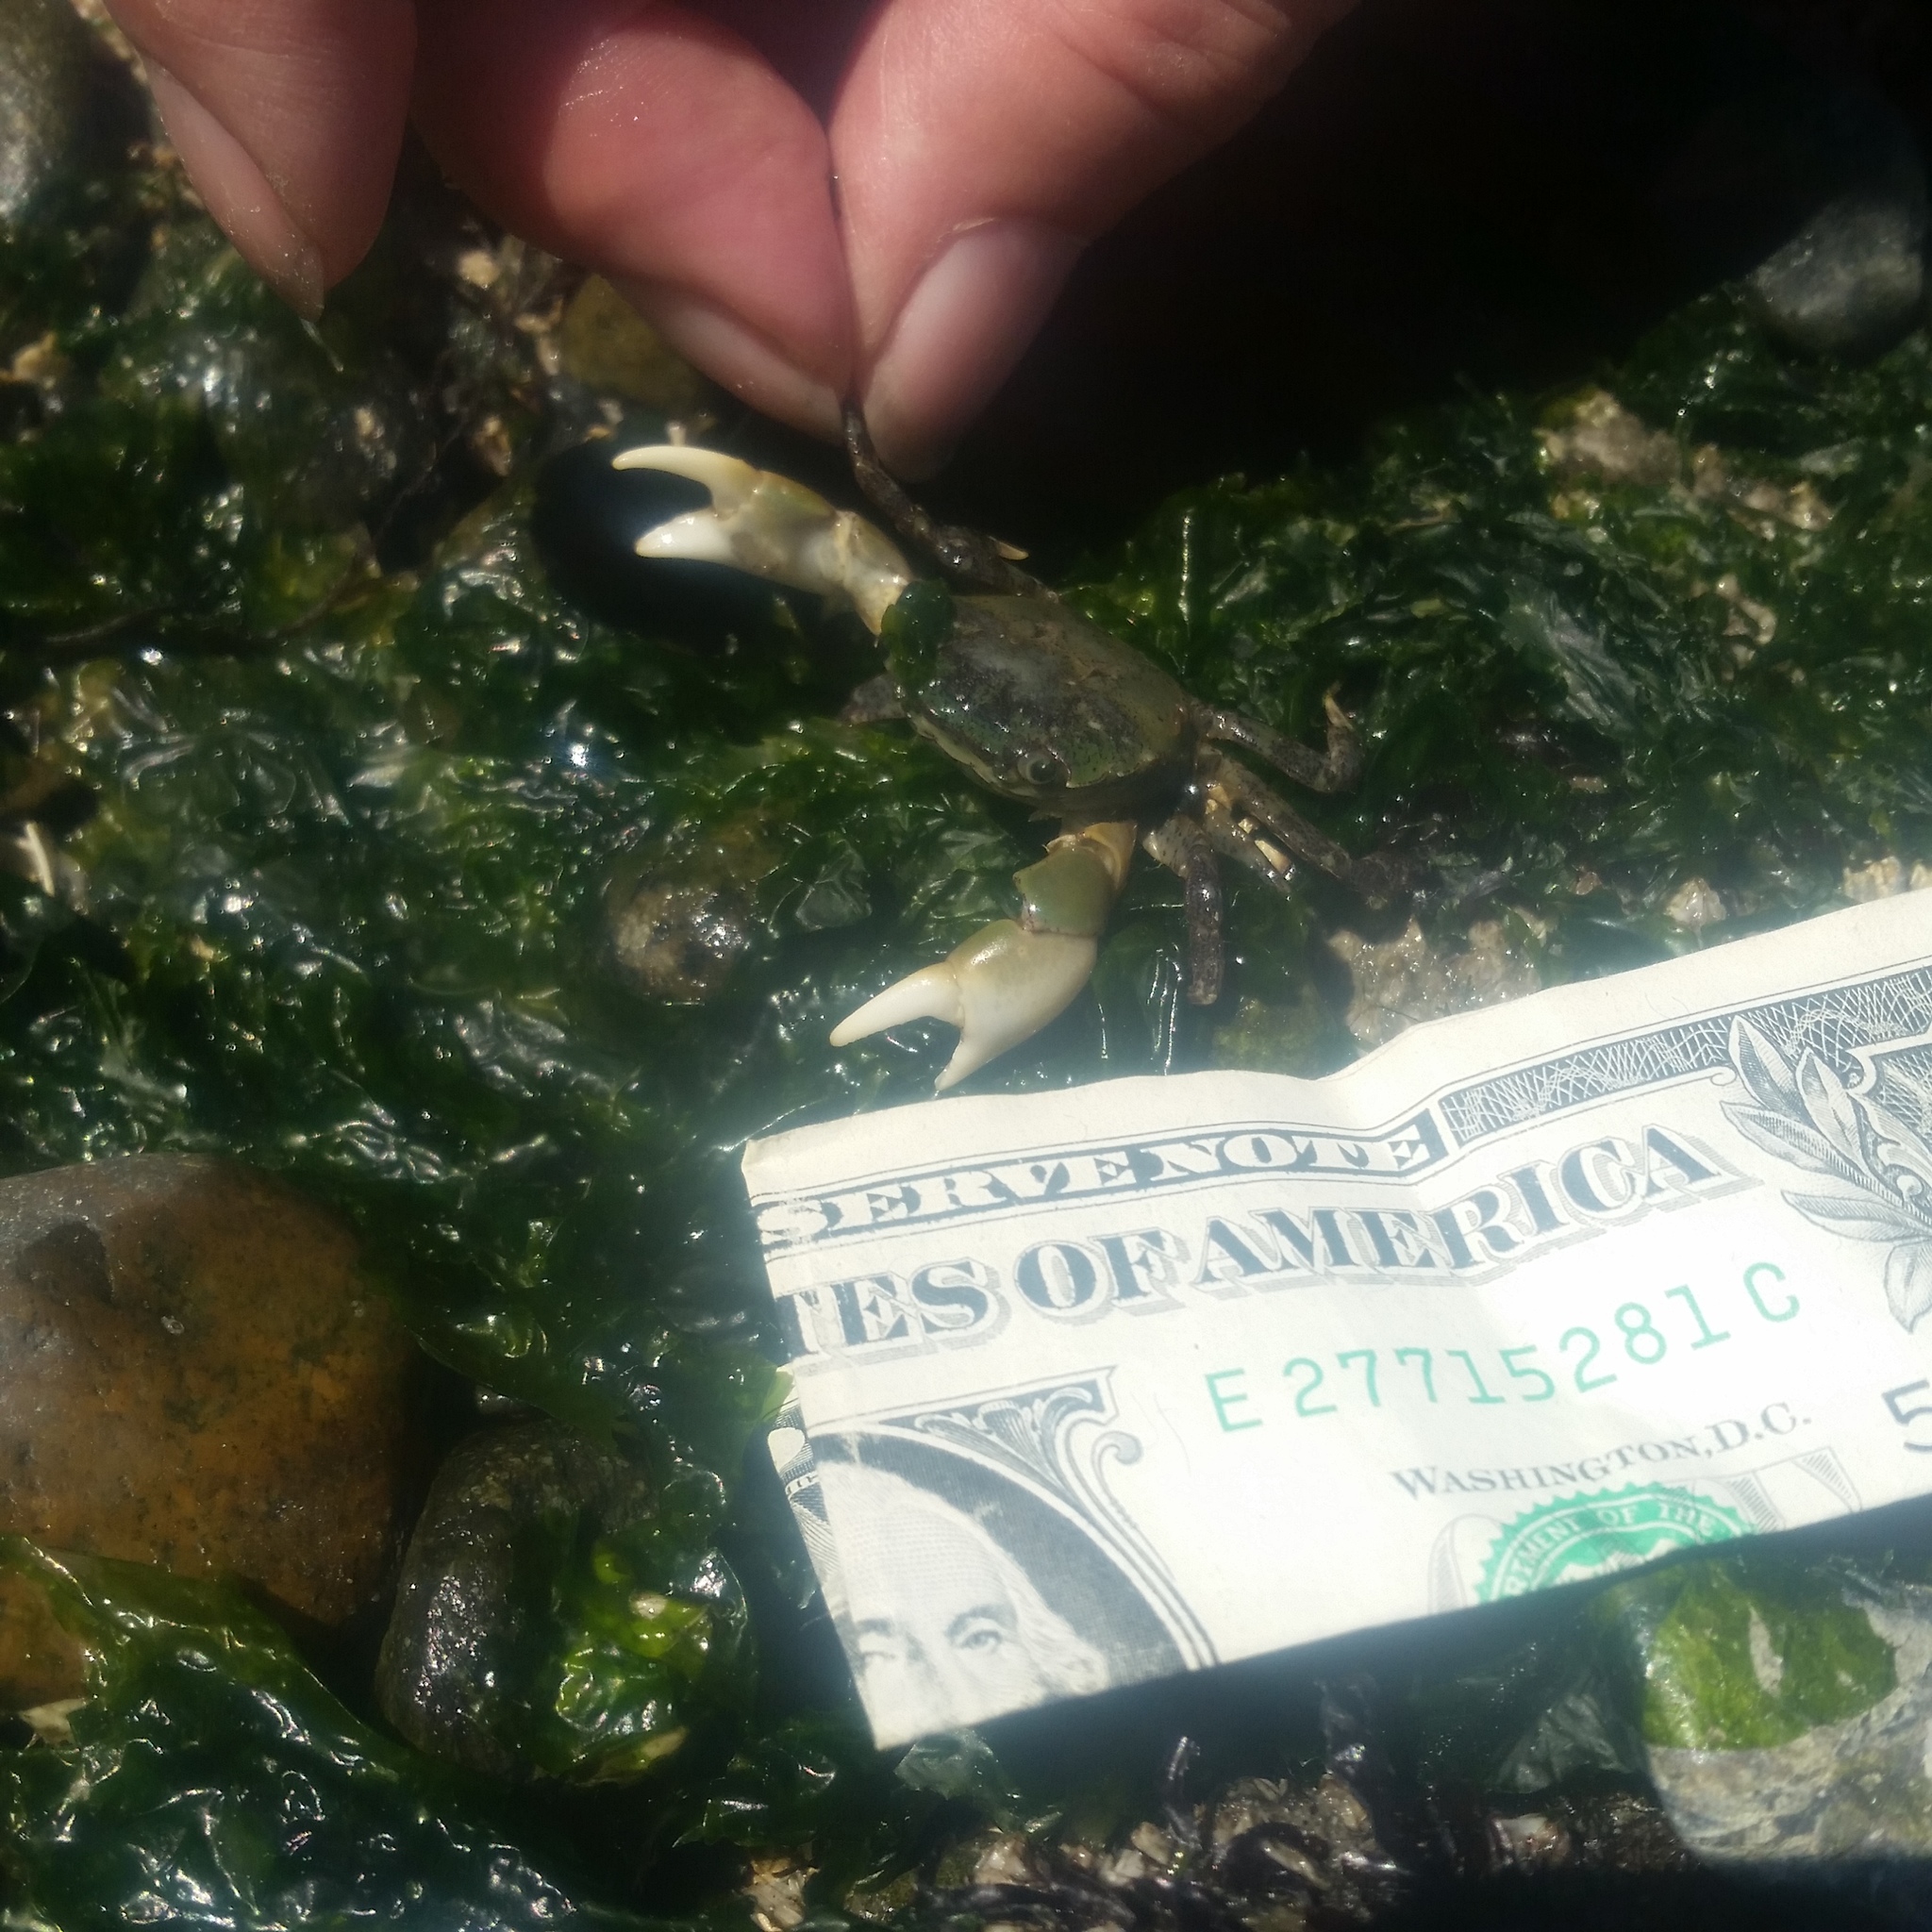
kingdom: Animalia
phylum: Arthropoda
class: Malacostraca
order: Decapoda
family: Varunidae
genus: Hemigrapsus
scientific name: Hemigrapsus oregonensis
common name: Yellow shore crab
